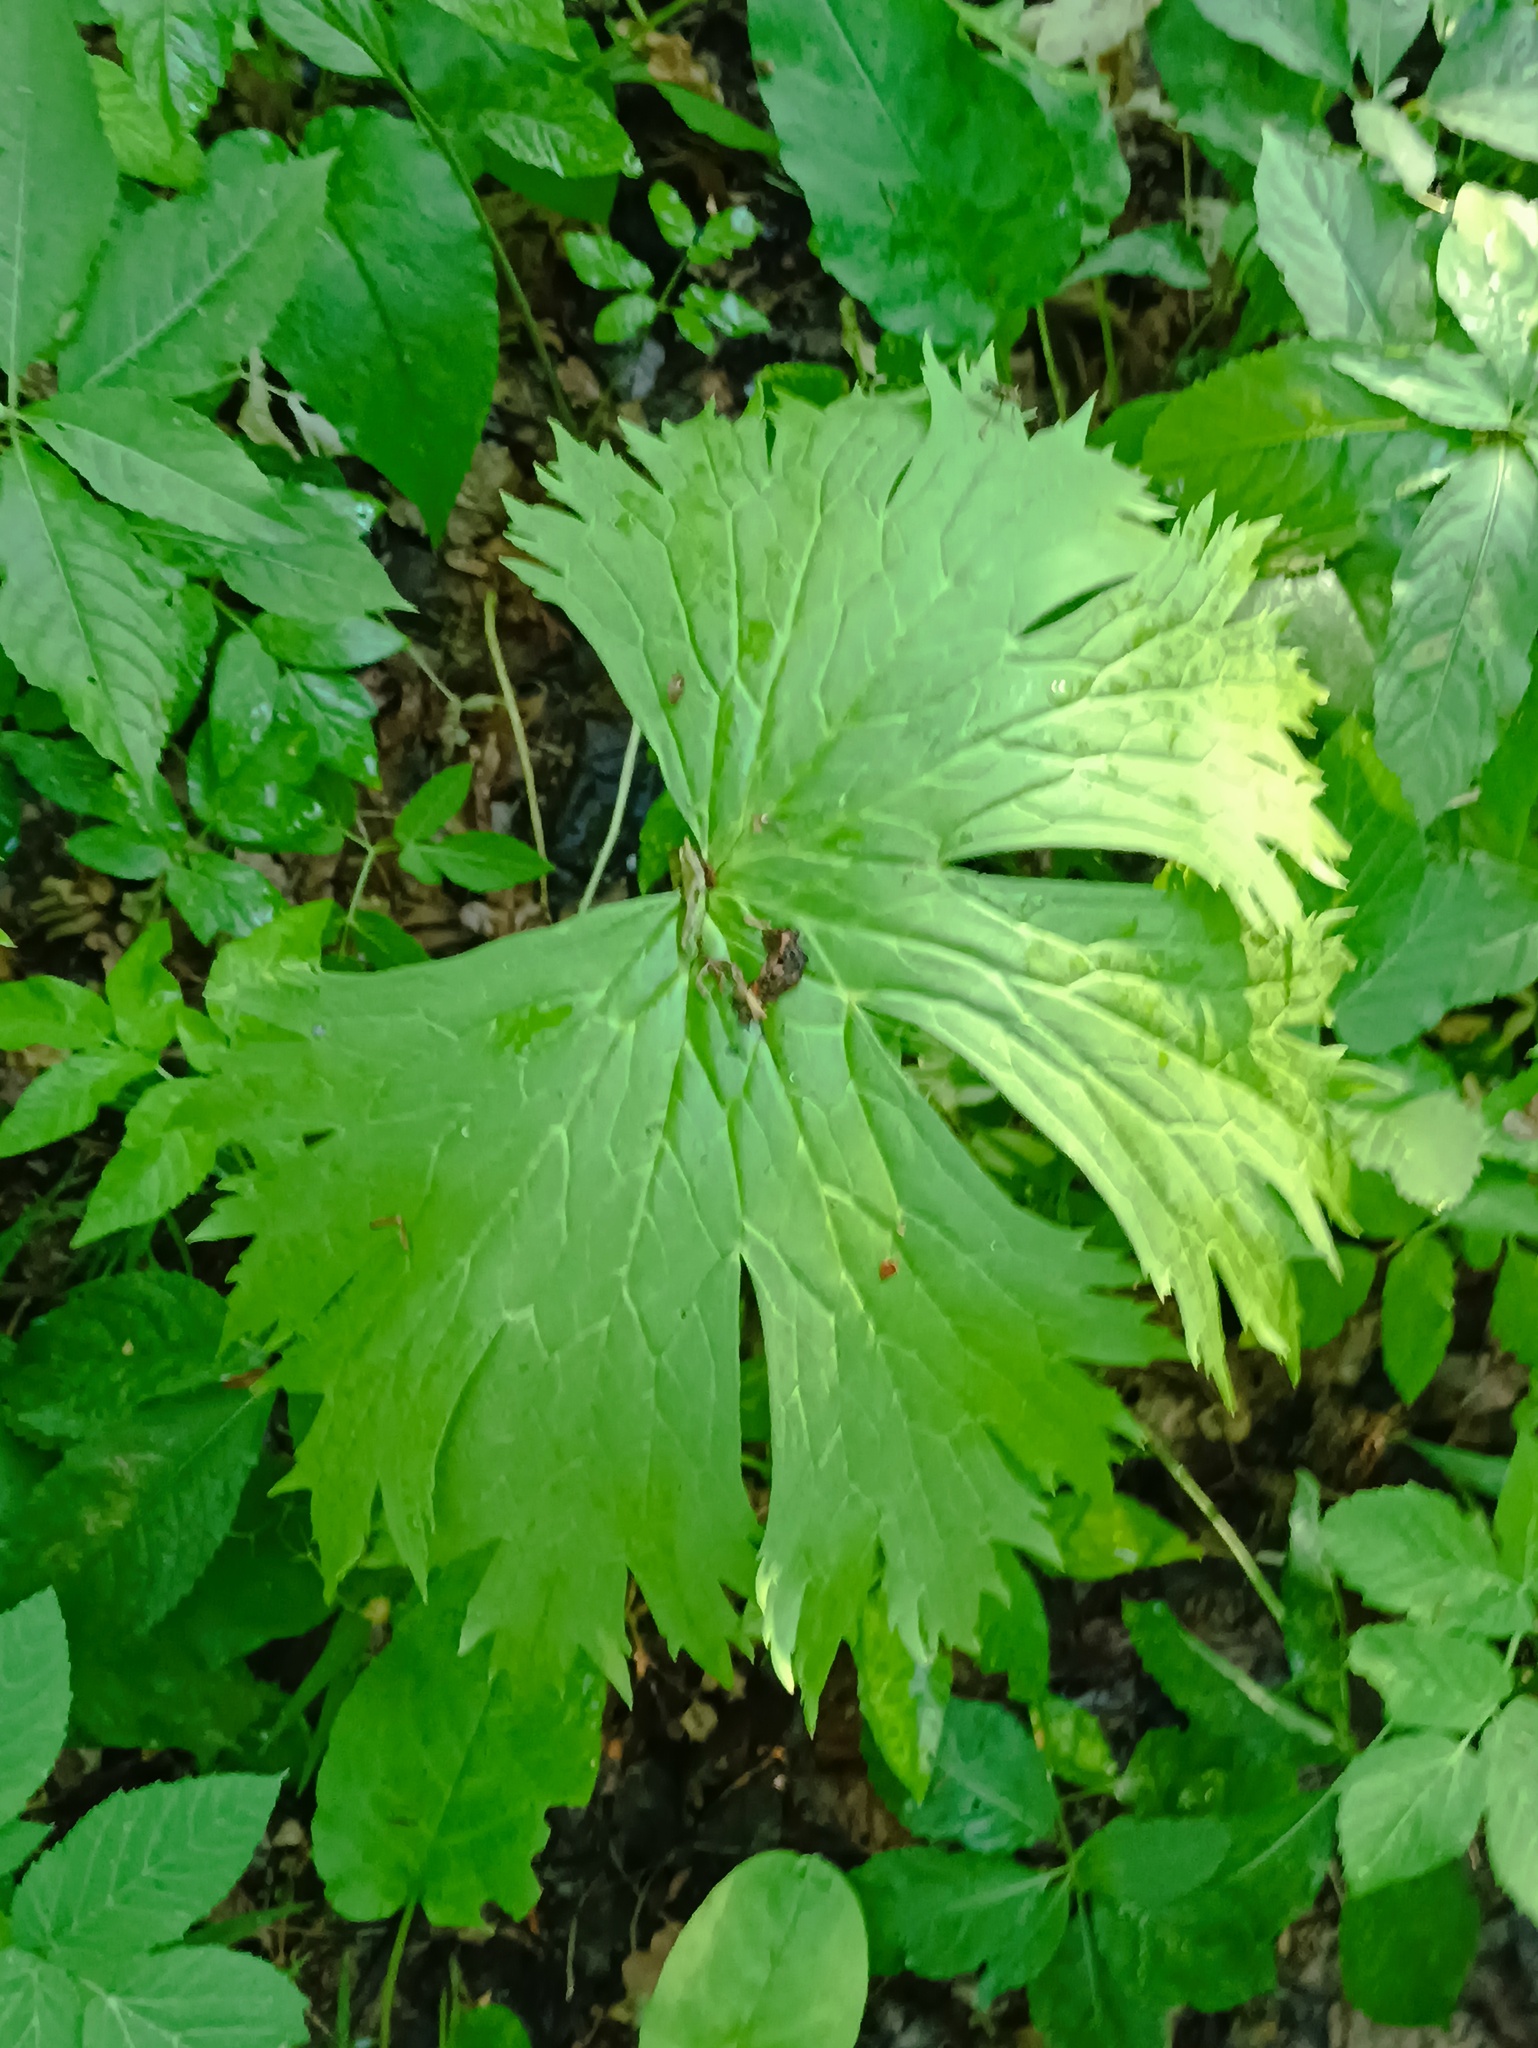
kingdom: Plantae
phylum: Tracheophyta
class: Magnoliopsida
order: Ranunculales
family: Ranunculaceae
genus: Aconitum
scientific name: Aconitum septentrionale
